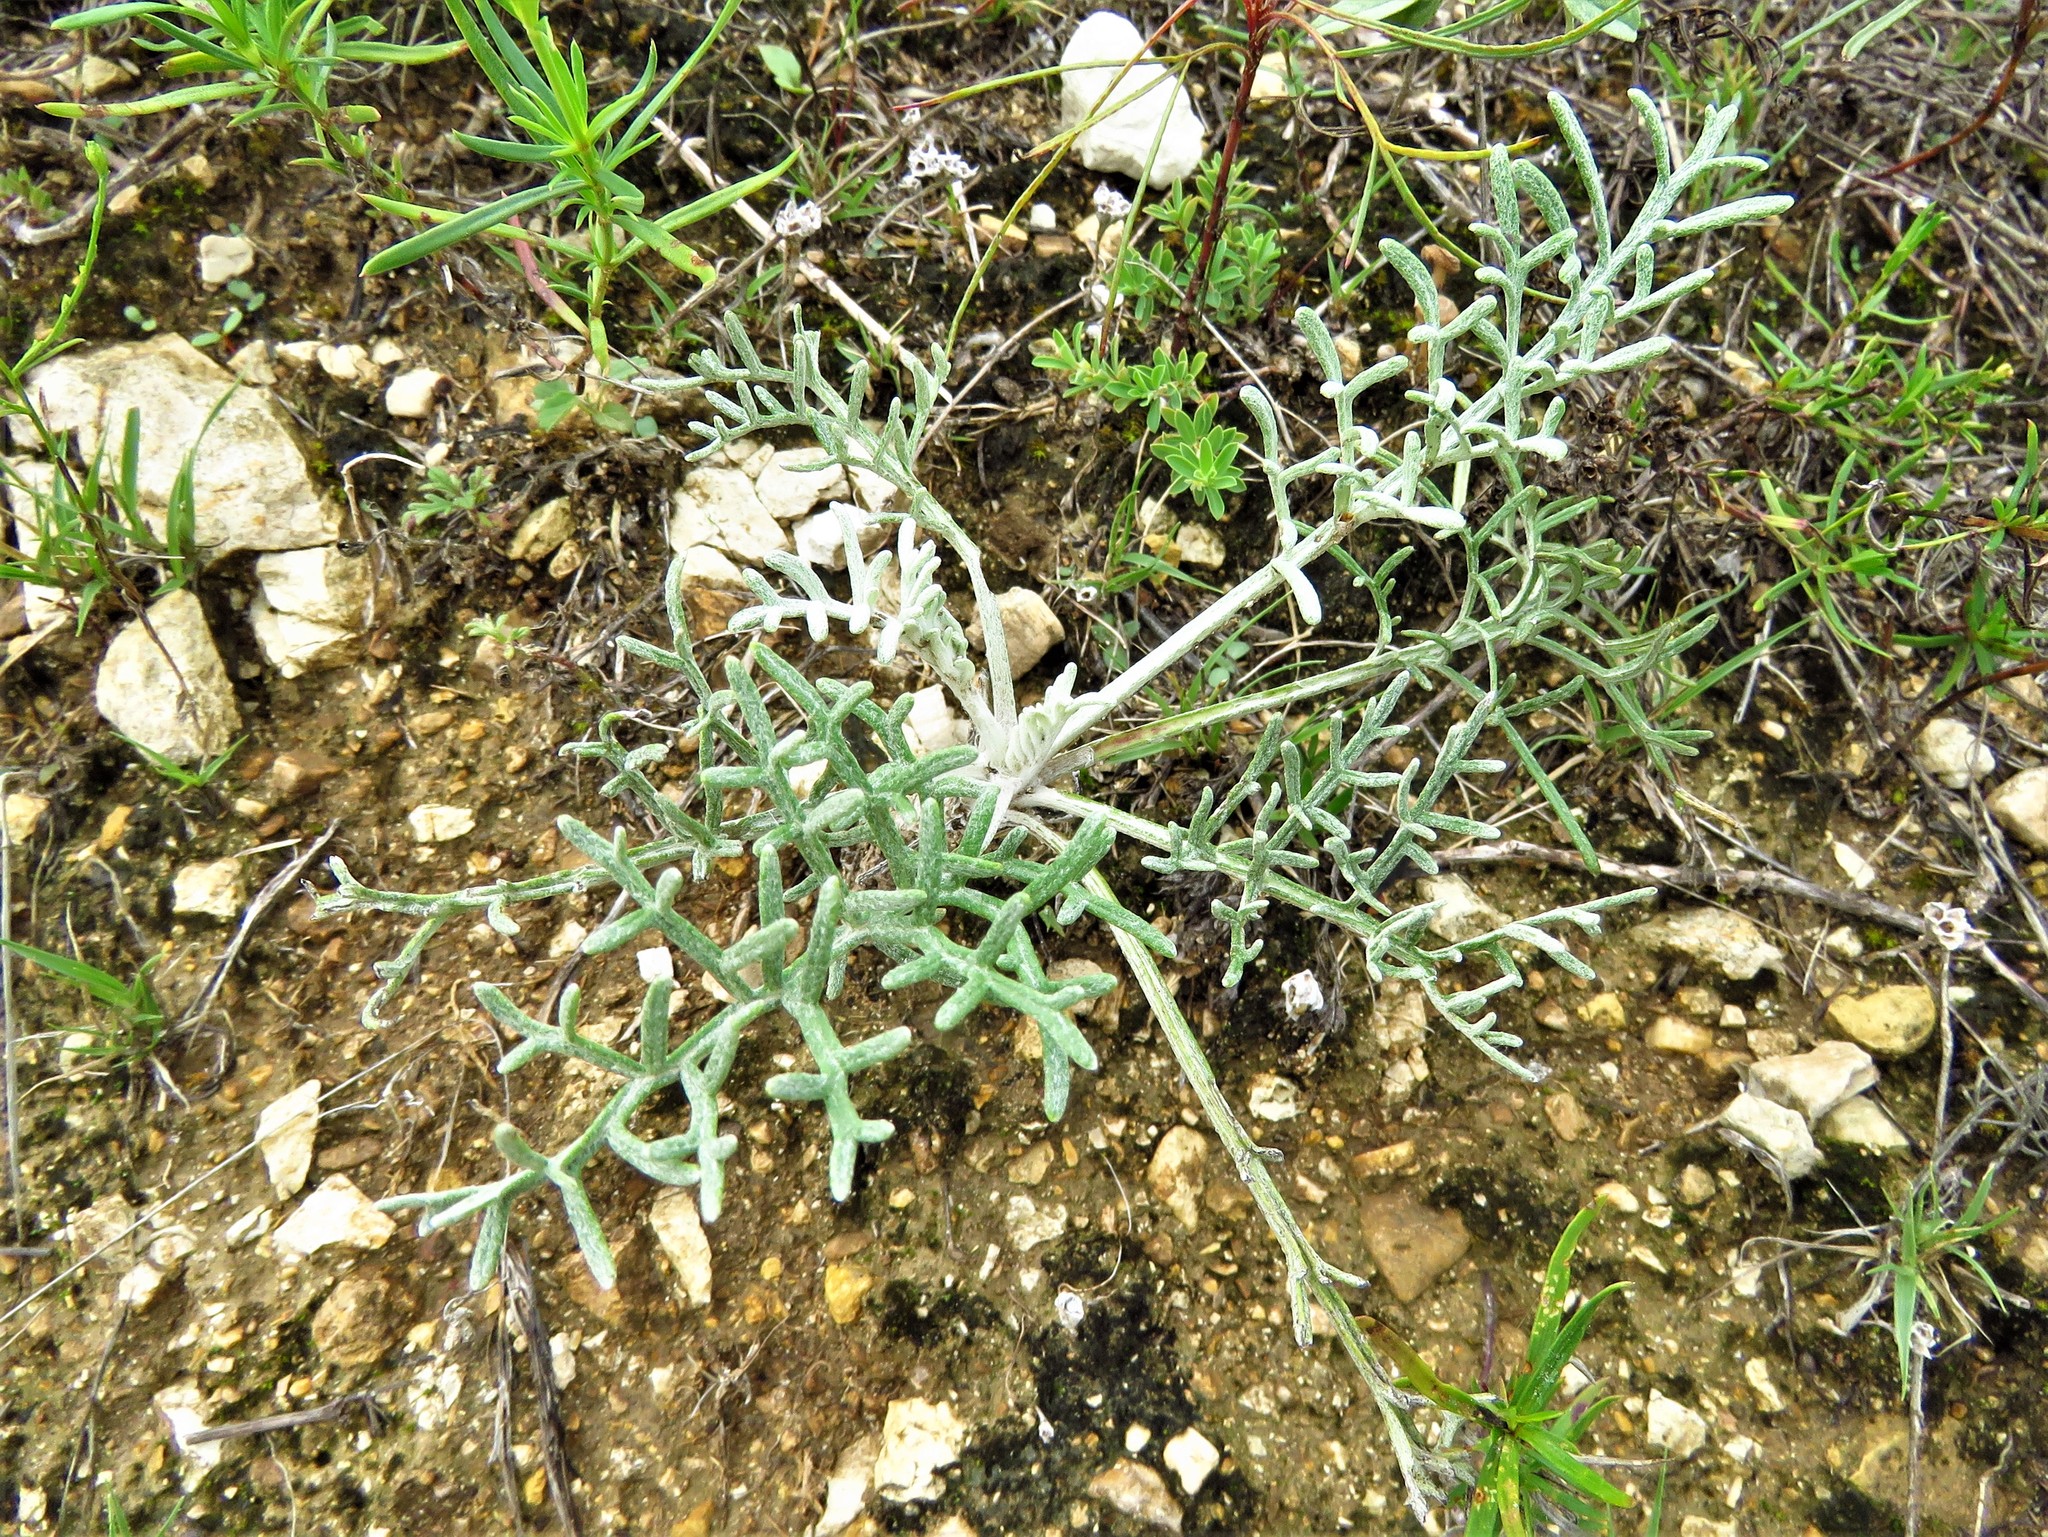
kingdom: Plantae
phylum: Tracheophyta
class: Magnoliopsida
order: Asterales
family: Asteraceae
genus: Hymenopappus
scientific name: Hymenopappus scabiosaeus
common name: Carolina woollywhite
